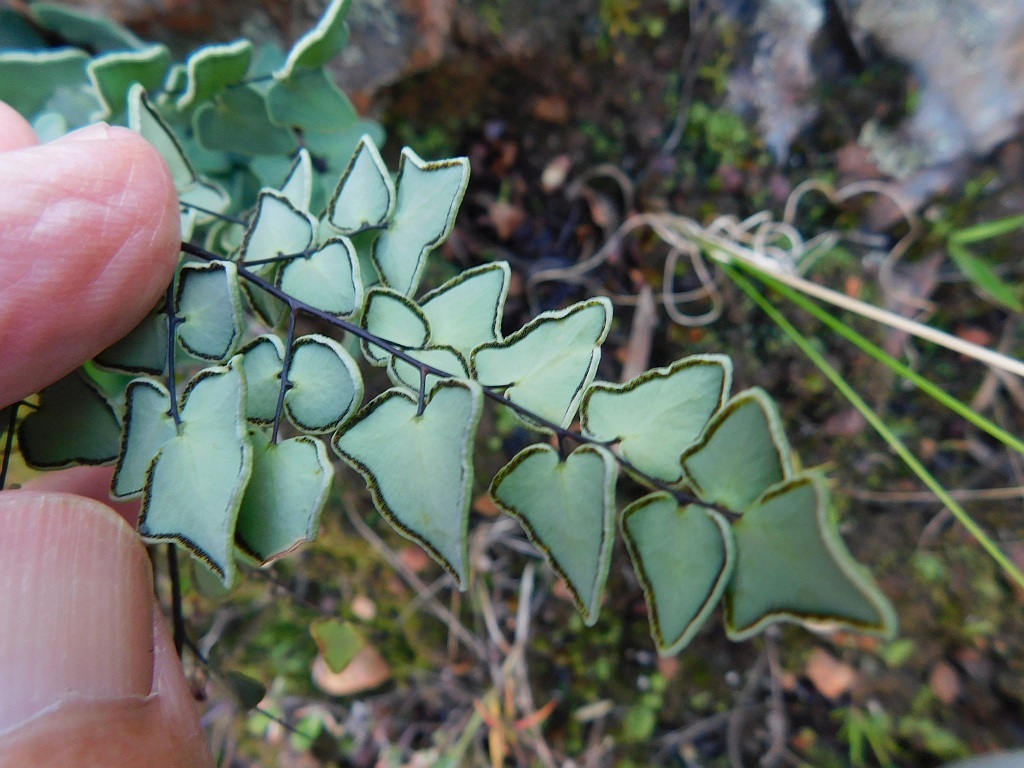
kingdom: Plantae
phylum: Tracheophyta
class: Polypodiopsida
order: Polypodiales
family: Pteridaceae
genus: Pellaea
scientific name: Pellaea calomelanos
